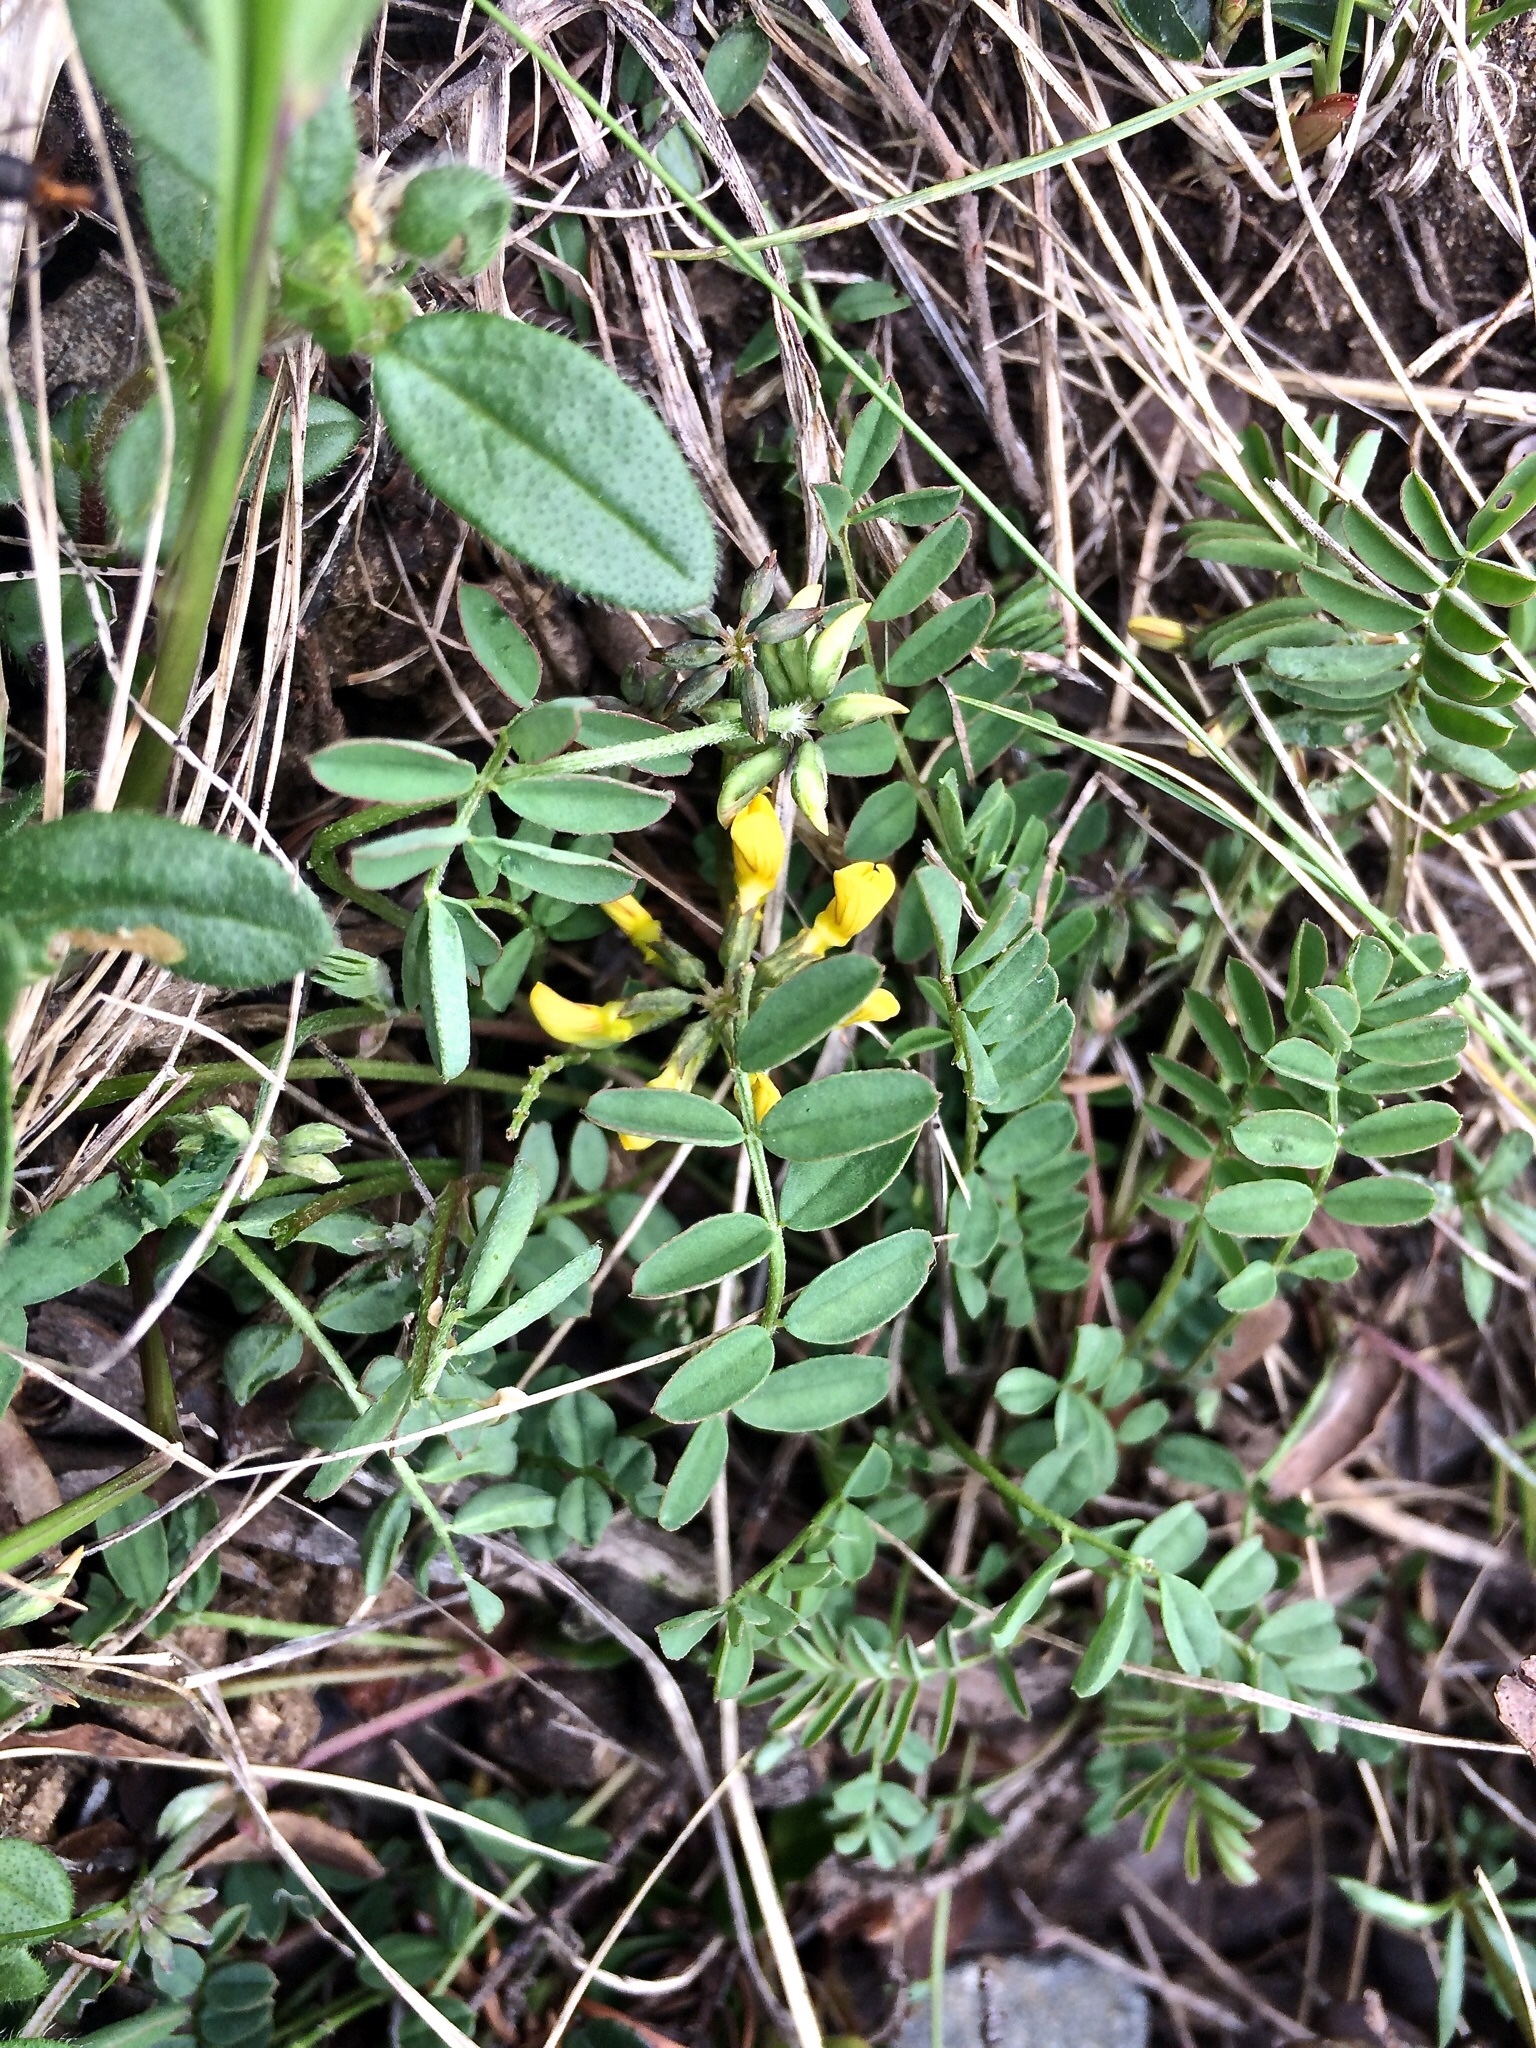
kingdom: Plantae
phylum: Tracheophyta
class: Magnoliopsida
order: Fabales
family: Fabaceae
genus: Hippocrepis
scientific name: Hippocrepis comosa
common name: Horseshoe vetch
